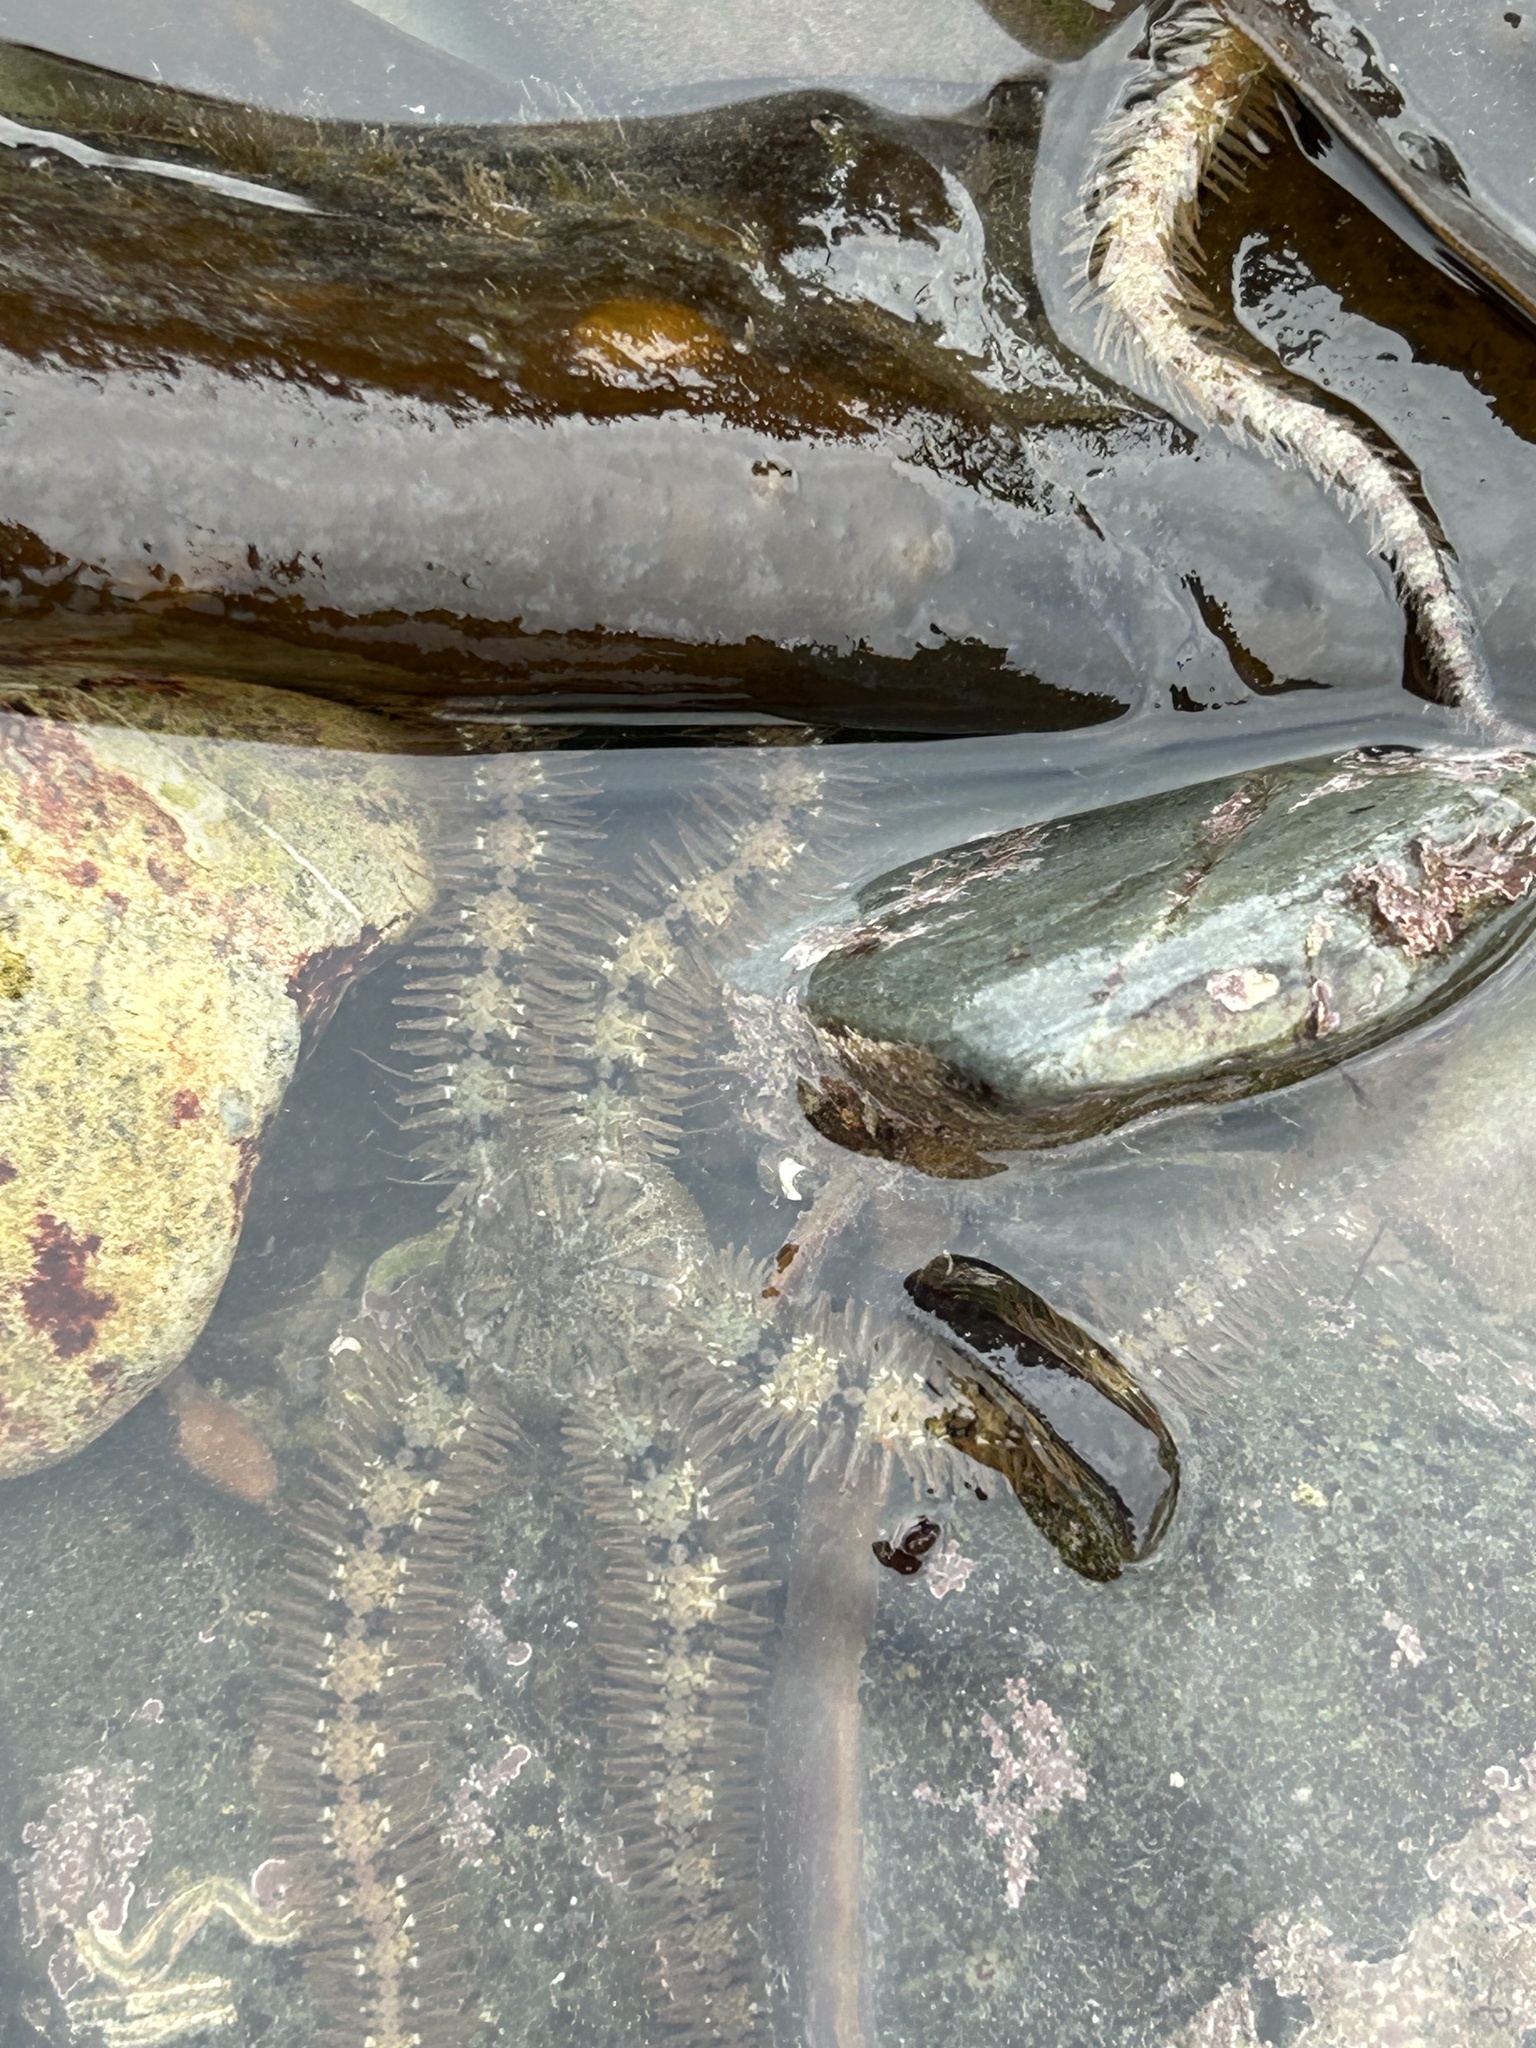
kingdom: Animalia
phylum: Echinodermata
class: Ophiuroidea
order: Amphilepidida
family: Ophiotrichidae
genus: Ophiothrix
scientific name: Ophiothrix fragilis
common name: Common brittlestar
